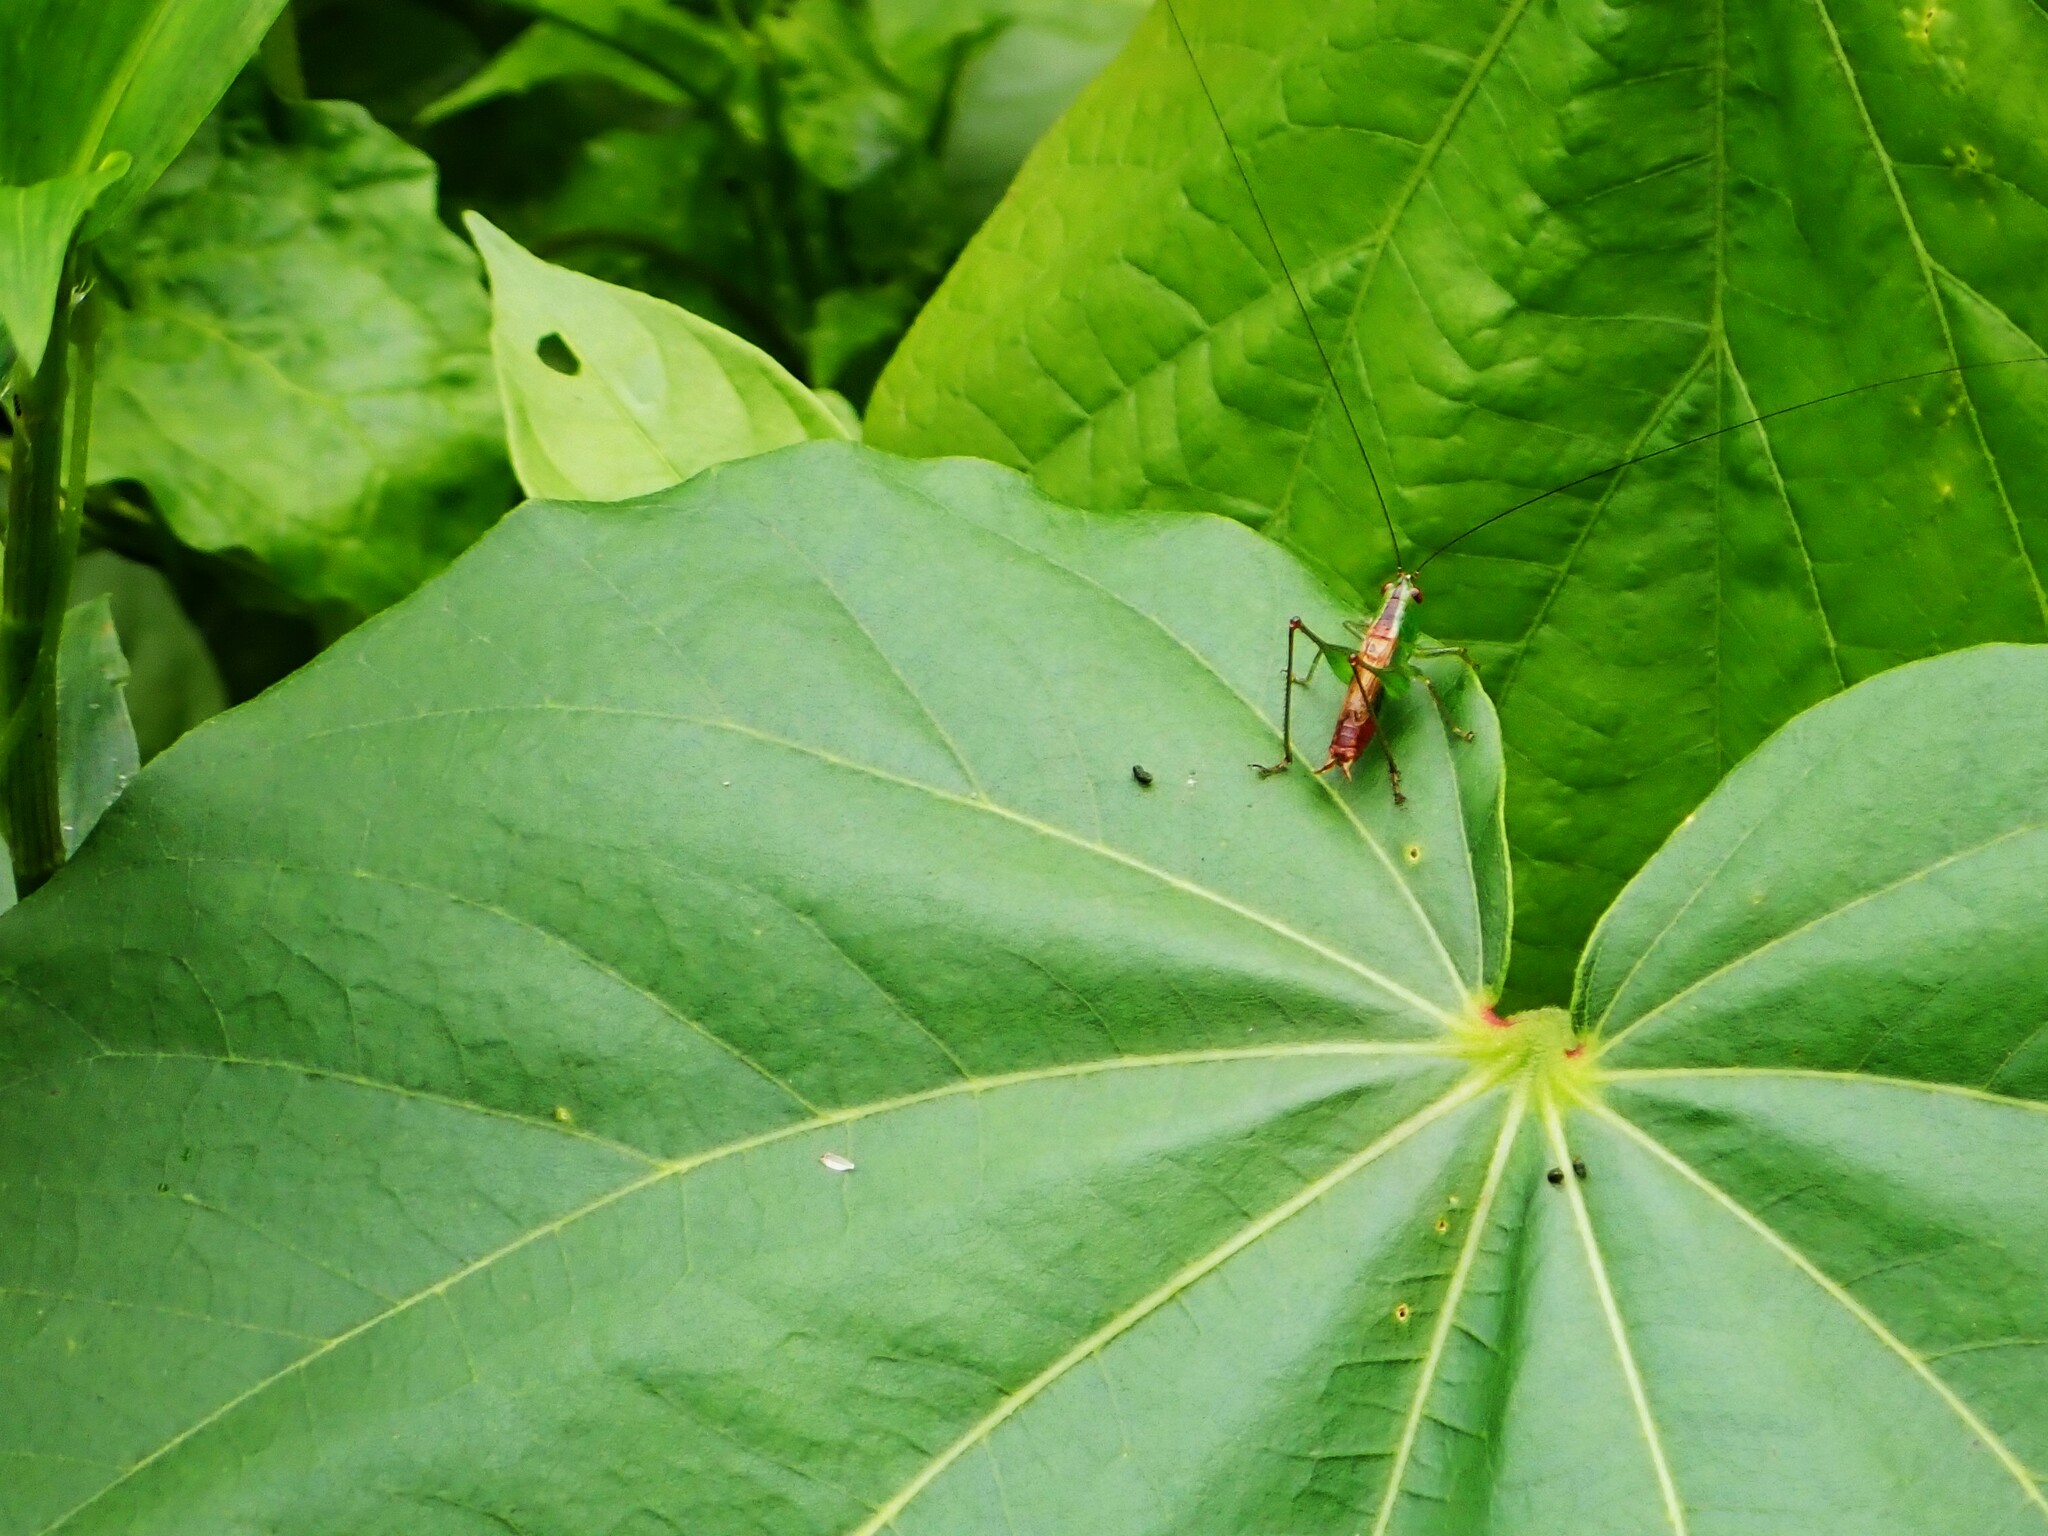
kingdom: Animalia
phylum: Arthropoda
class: Insecta
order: Orthoptera
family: Tettigoniidae
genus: Conocephalus
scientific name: Conocephalus saltator
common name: Katydid
